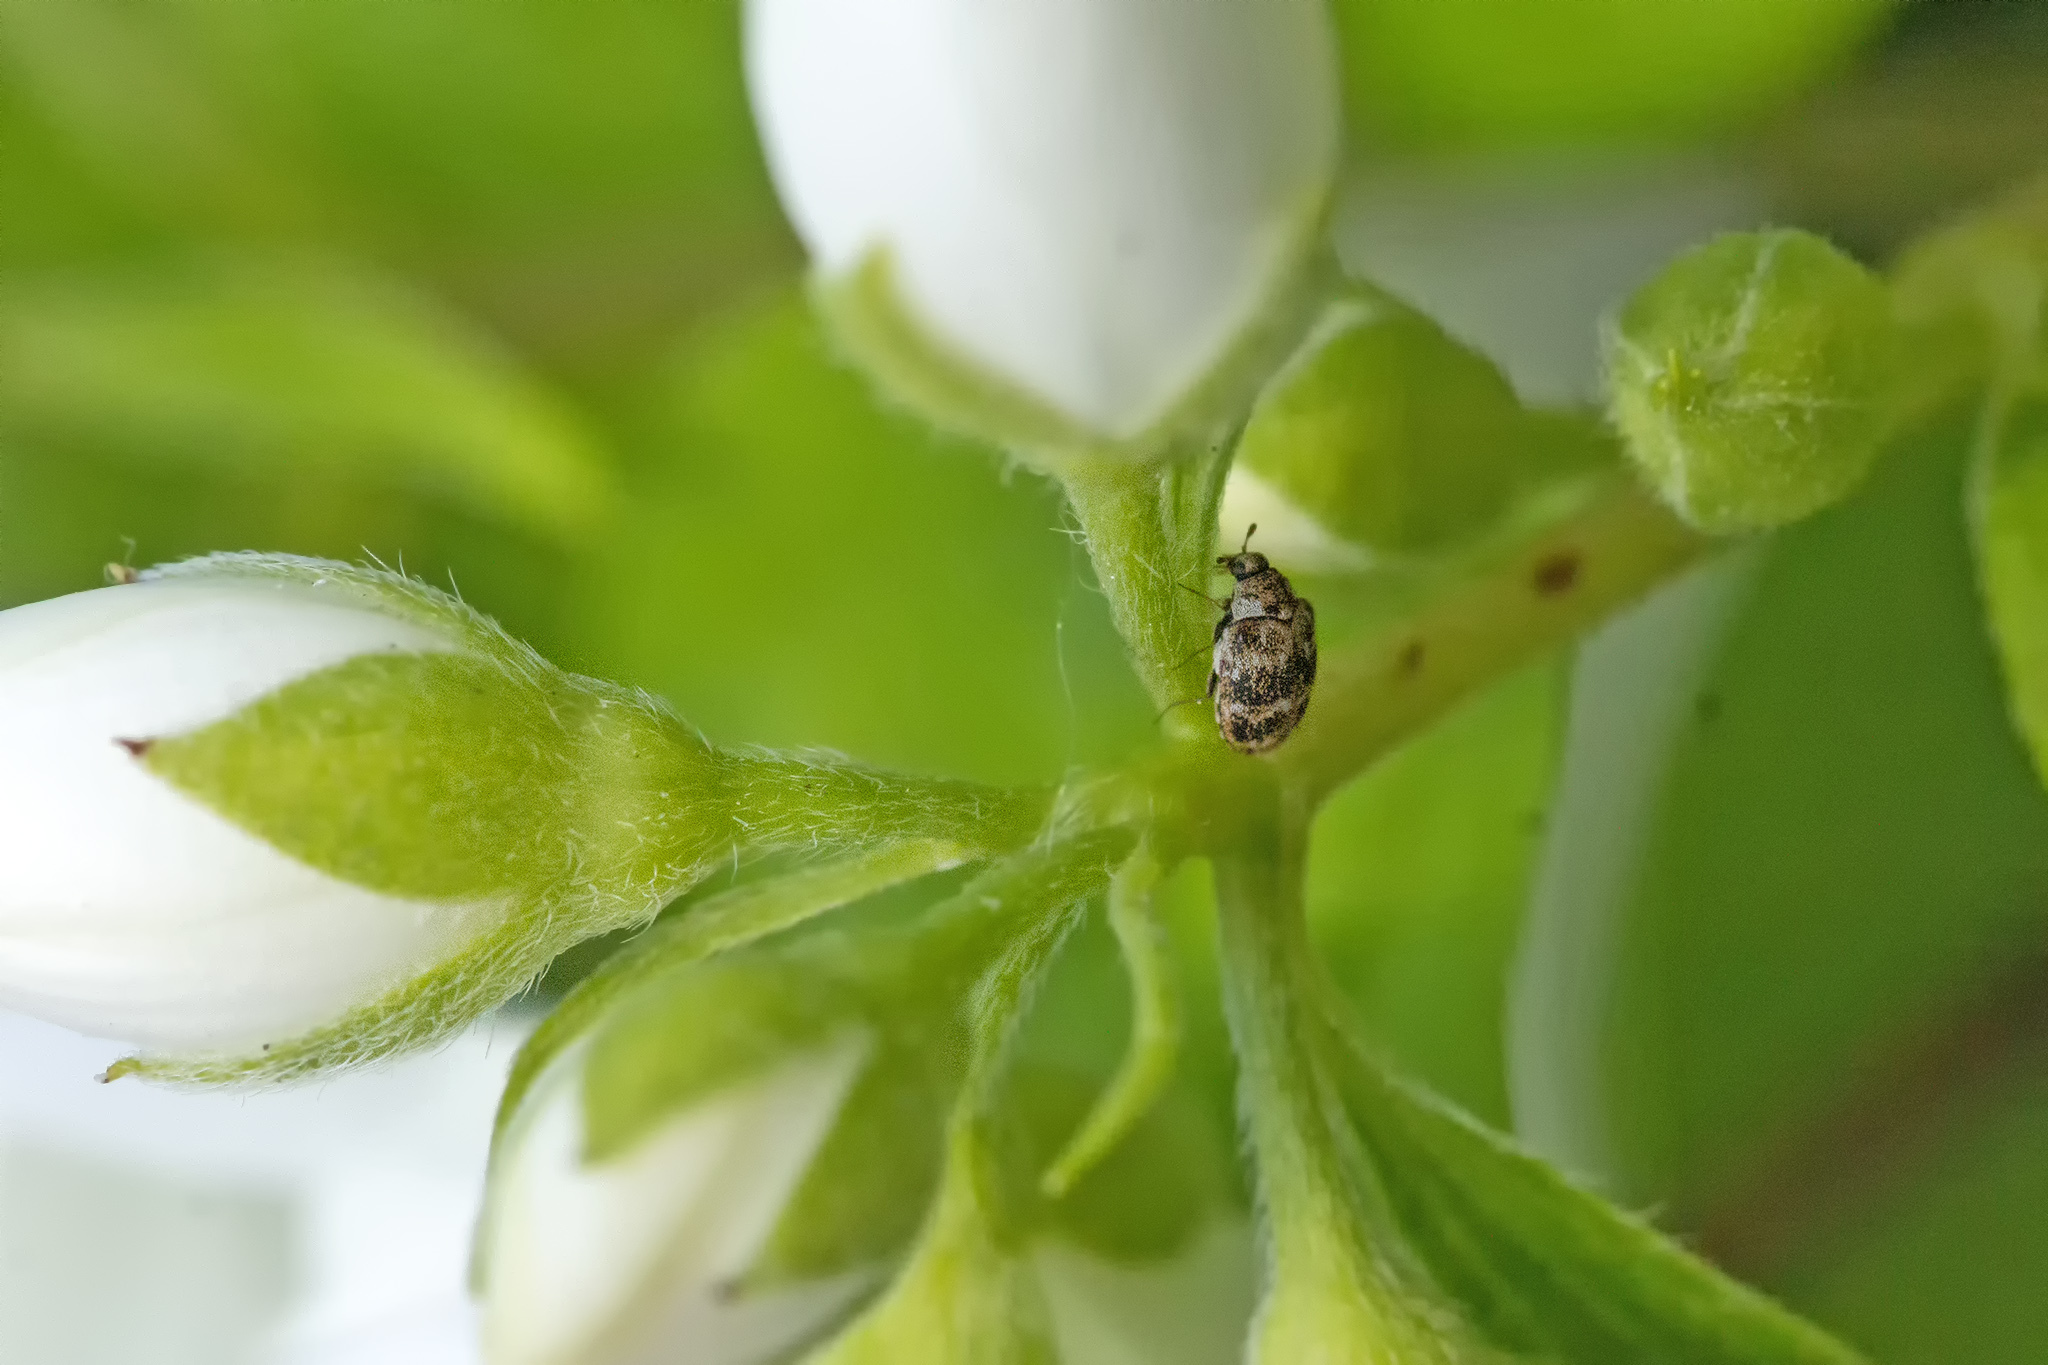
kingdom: Animalia
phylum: Arthropoda
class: Insecta
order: Coleoptera
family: Dermestidae
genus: Anthrenus
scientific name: Anthrenus museorum
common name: Museum beetle
